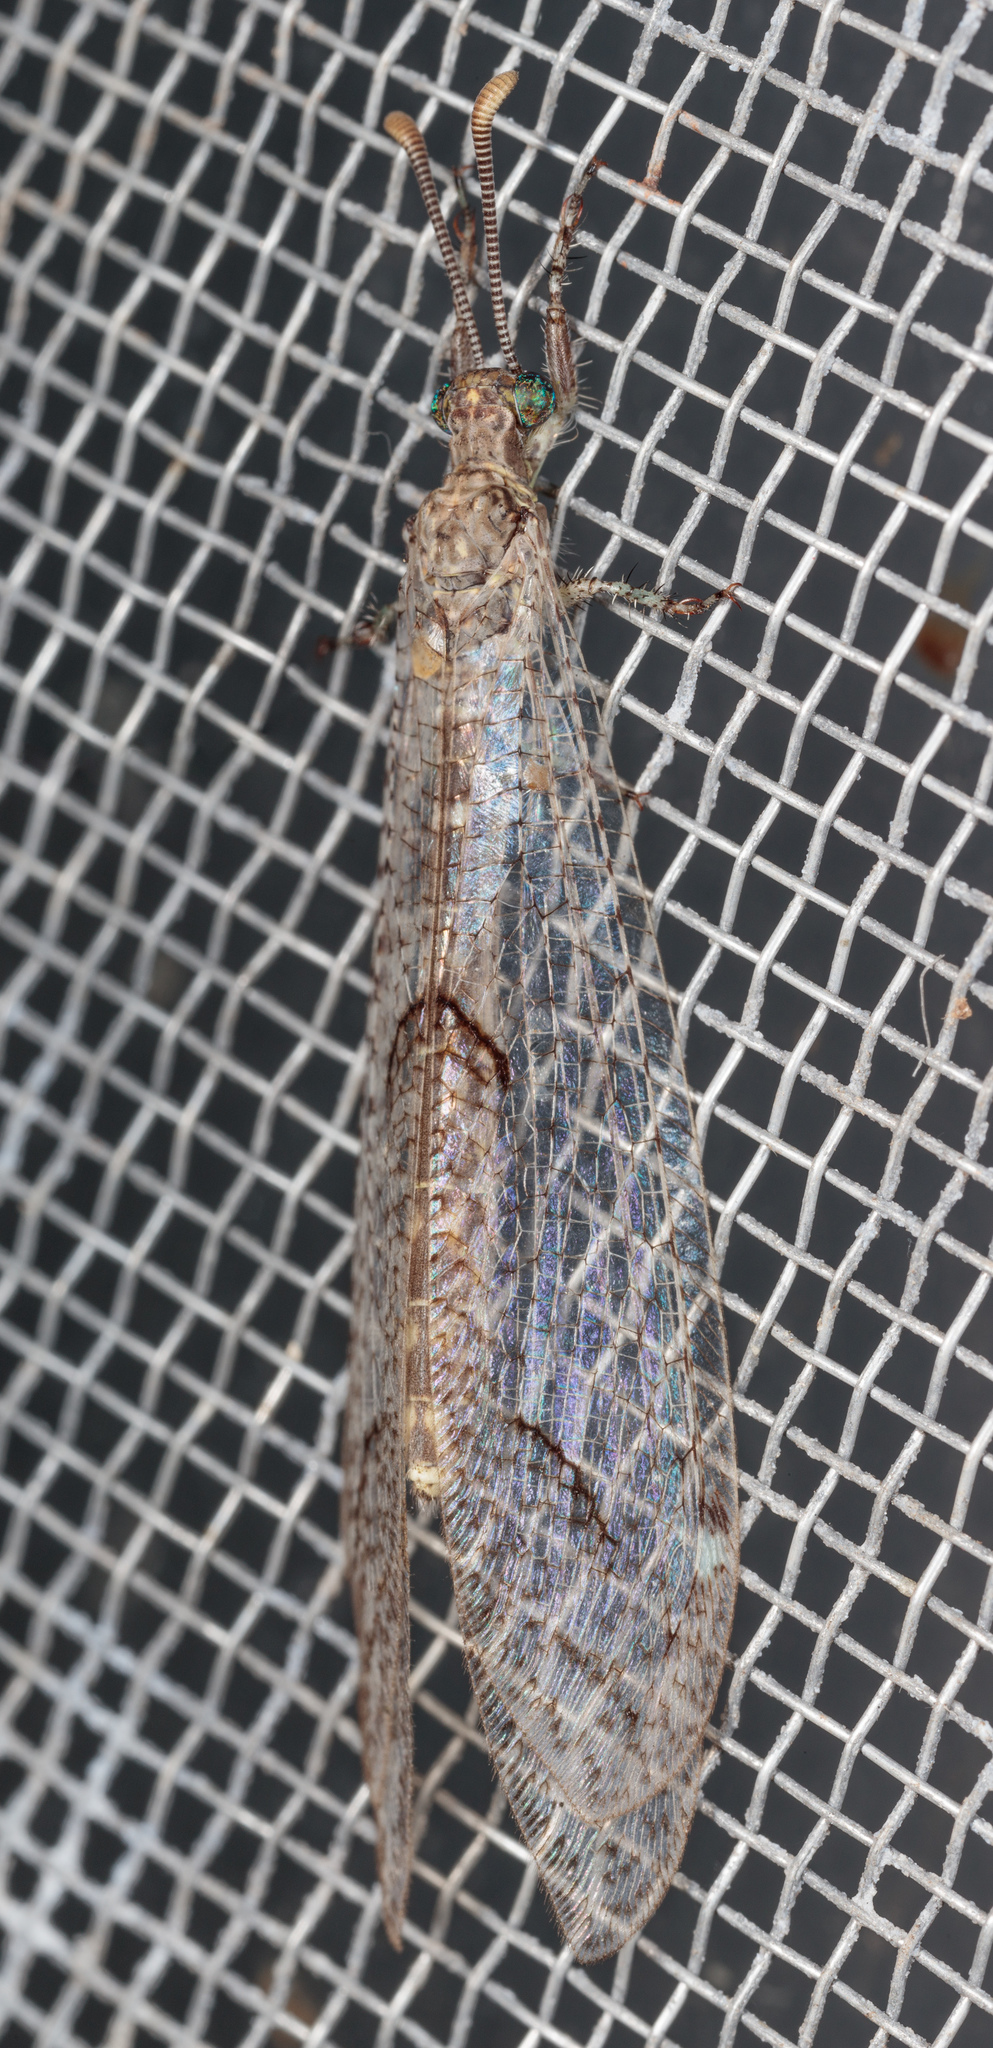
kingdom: Animalia
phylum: Arthropoda
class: Insecta
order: Neuroptera
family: Myrmeleontidae
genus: Euptilon
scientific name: Euptilon ornatum
